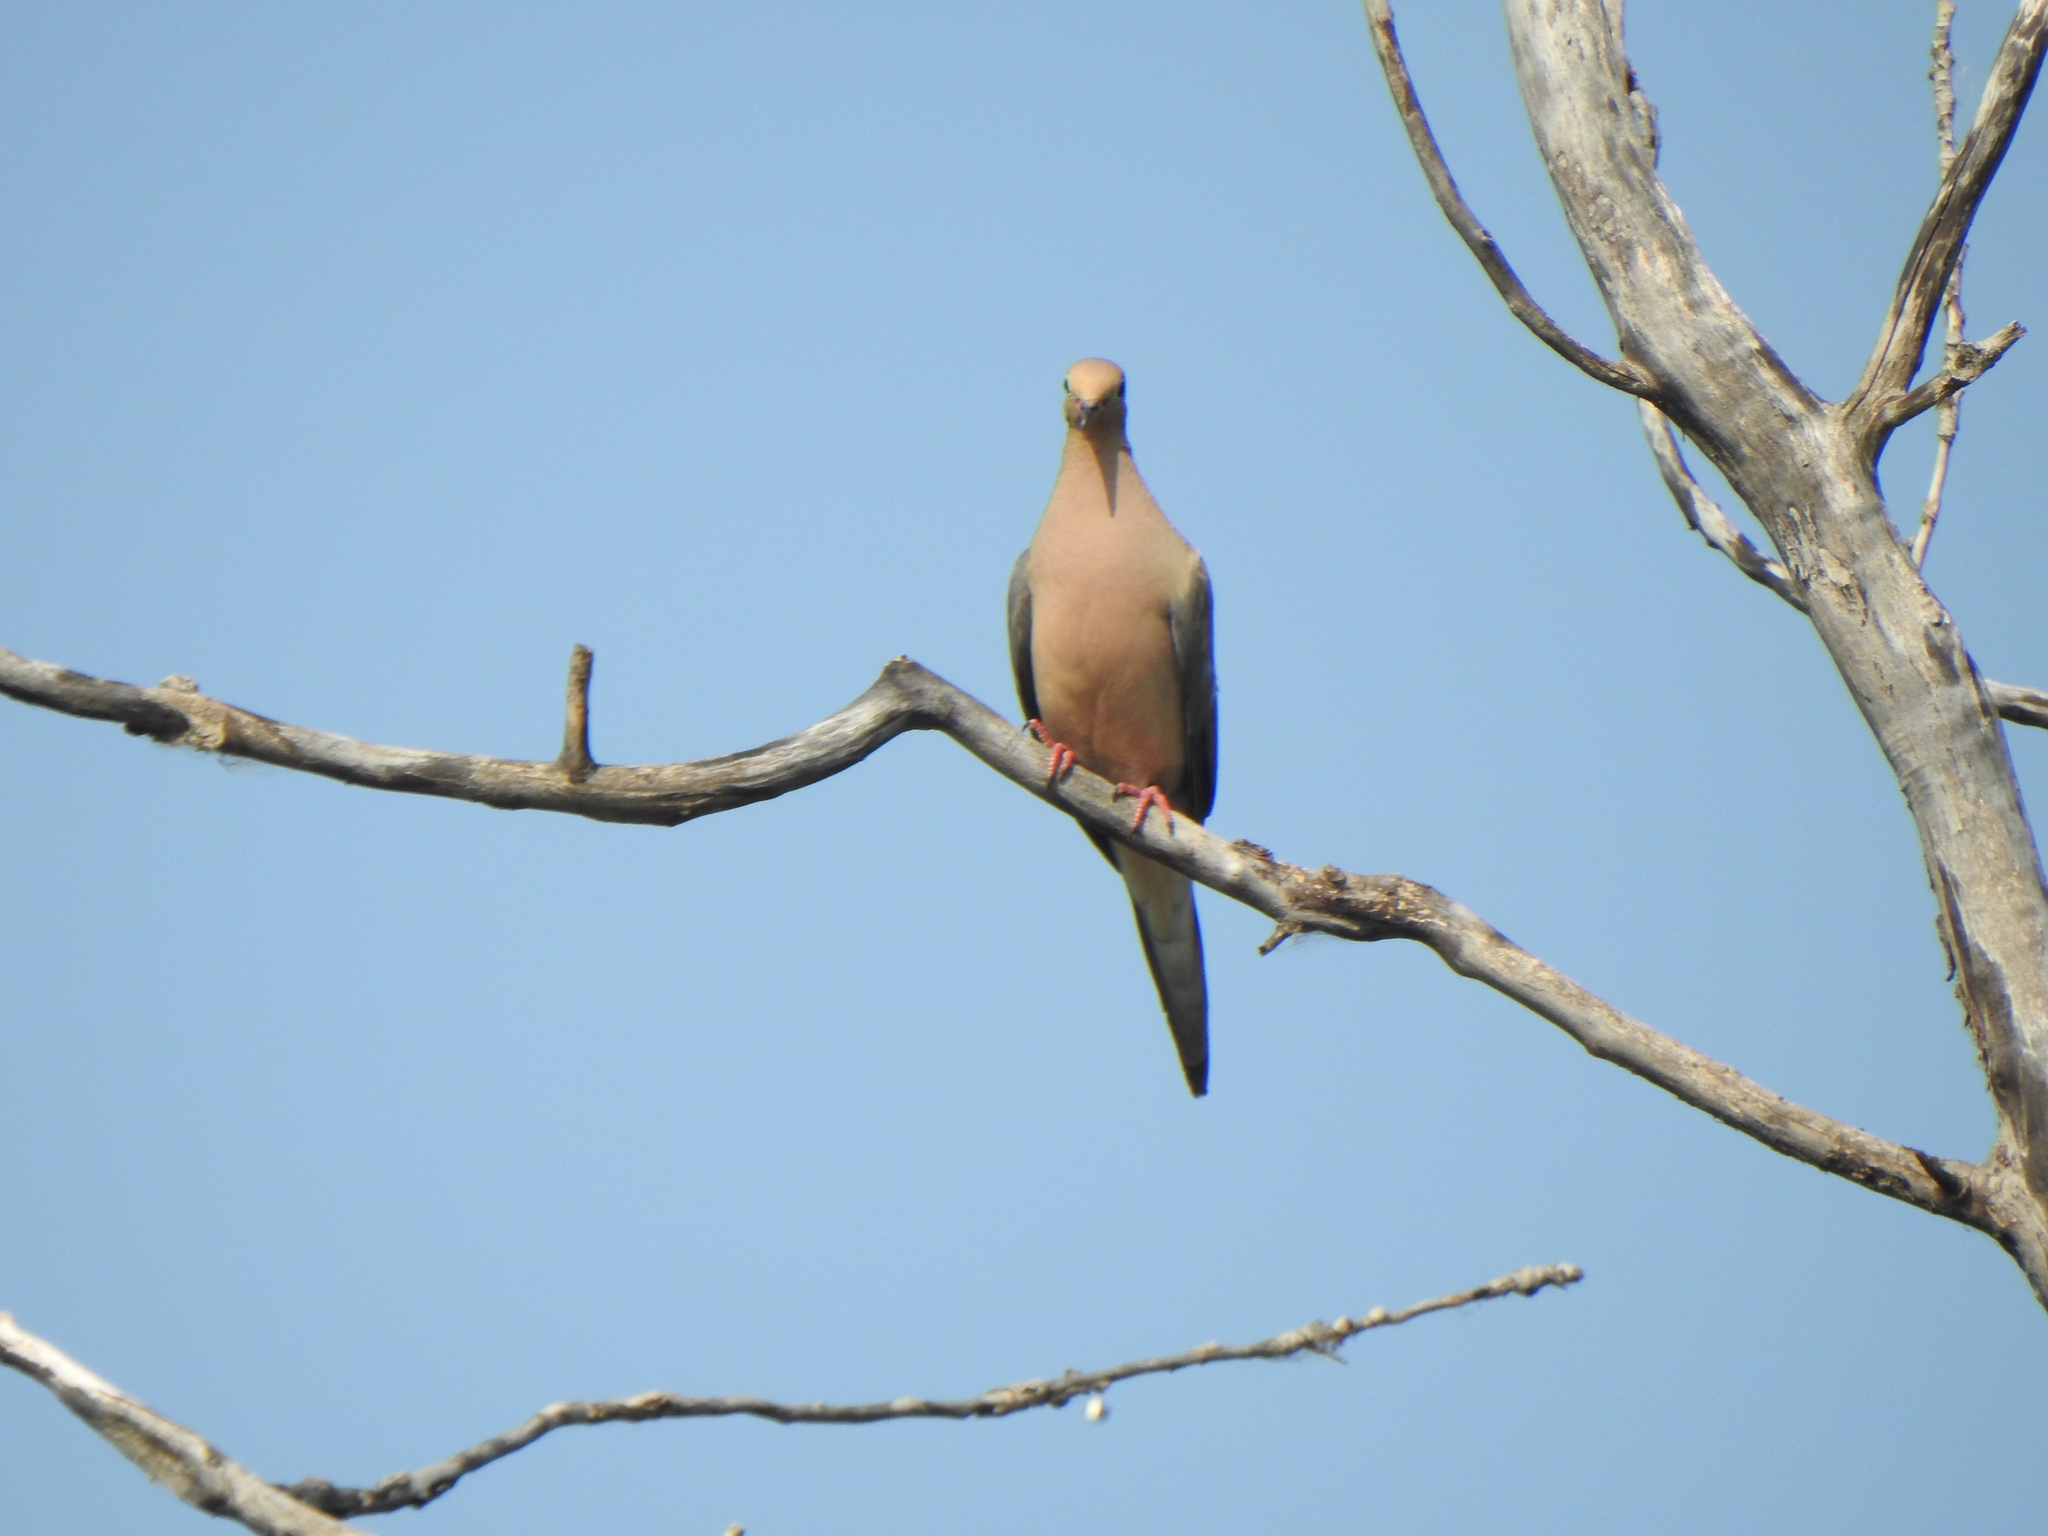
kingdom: Animalia
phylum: Chordata
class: Aves
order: Columbiformes
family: Columbidae
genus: Zenaida
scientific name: Zenaida macroura
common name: Mourning dove
